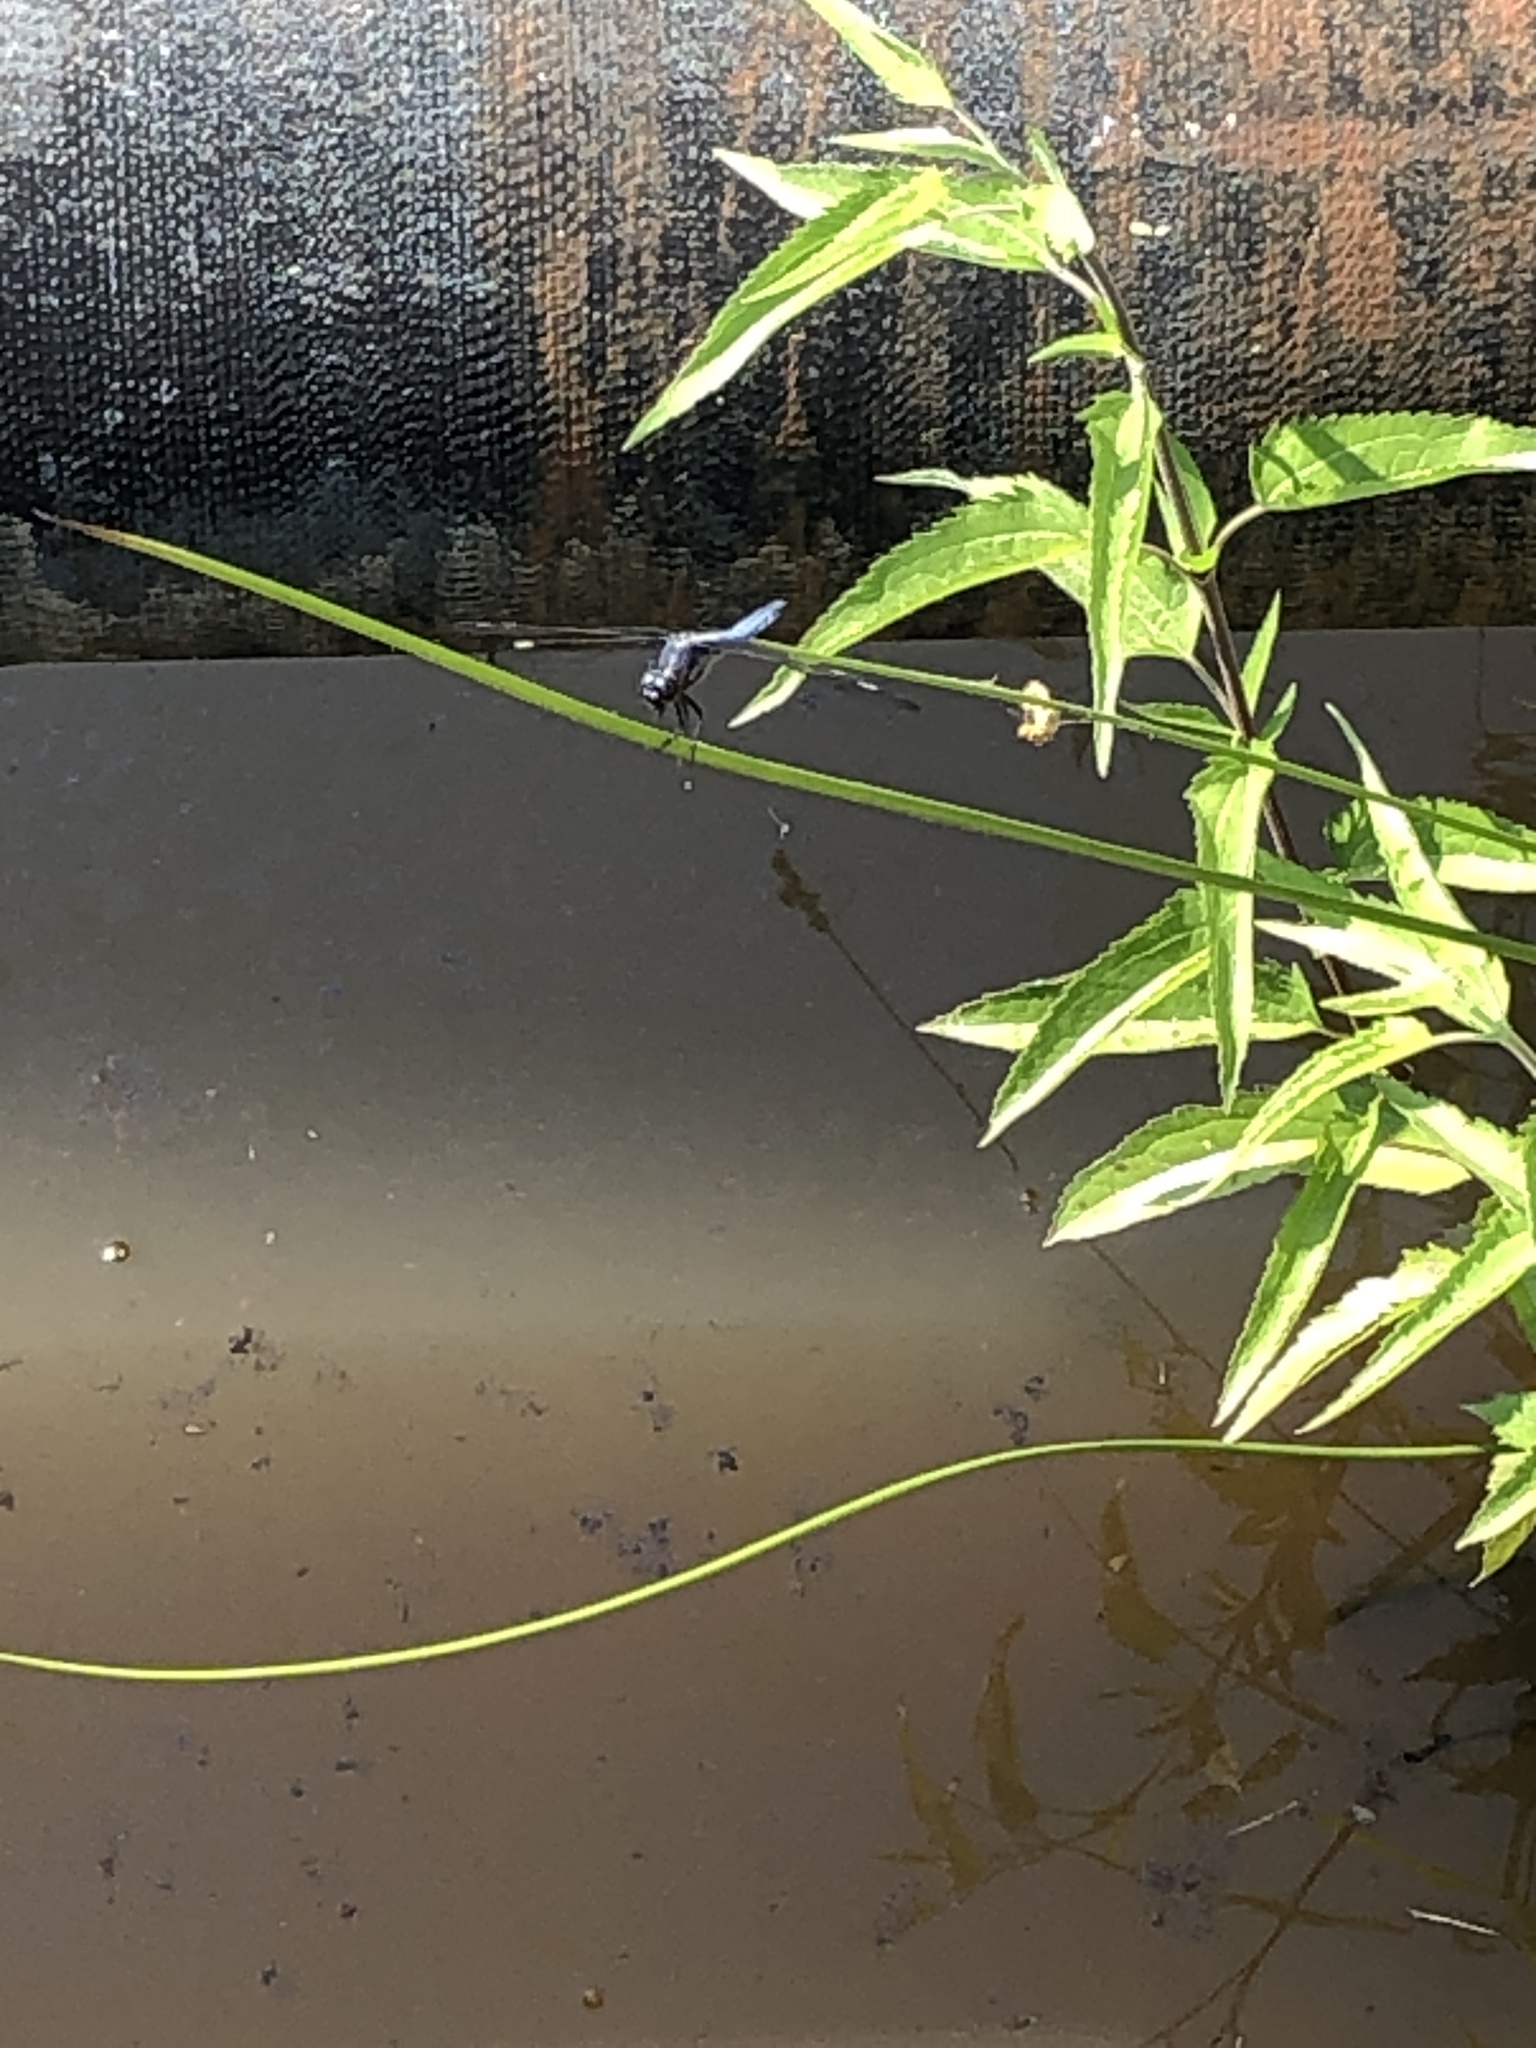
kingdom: Animalia
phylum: Arthropoda
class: Insecta
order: Odonata
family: Libellulidae
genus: Libellula
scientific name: Libellula cyanea
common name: Spangled skimmer
